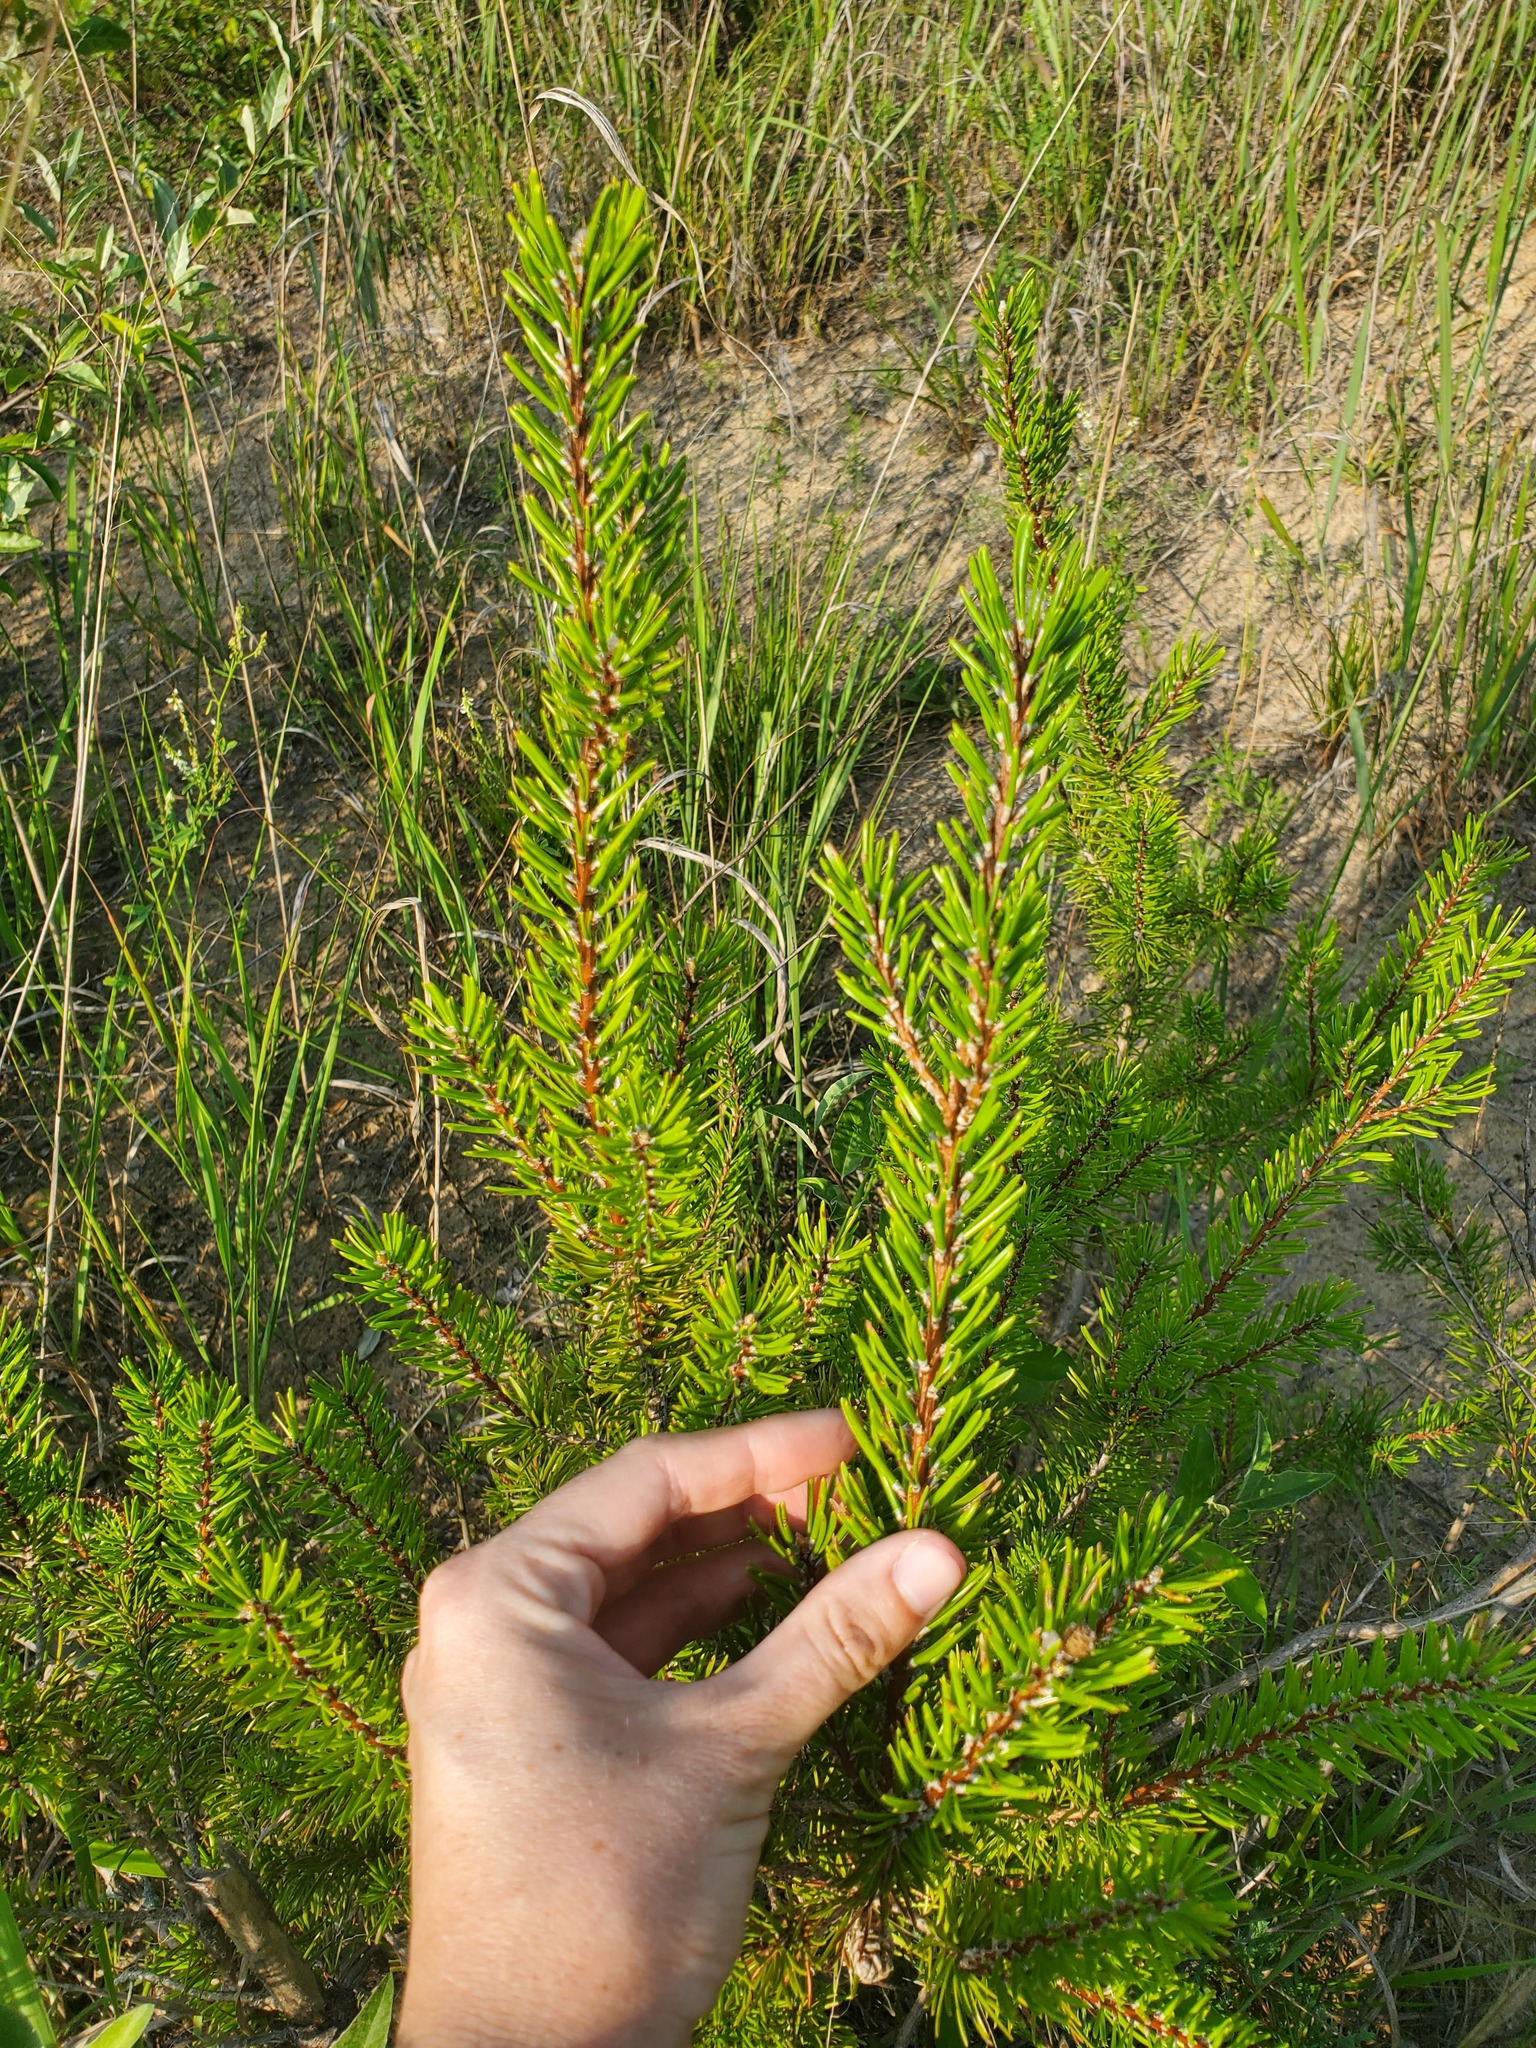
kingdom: Plantae
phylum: Tracheophyta
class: Pinopsida
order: Pinales
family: Pinaceae
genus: Pinus
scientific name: Pinus banksiana
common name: Jack pine
